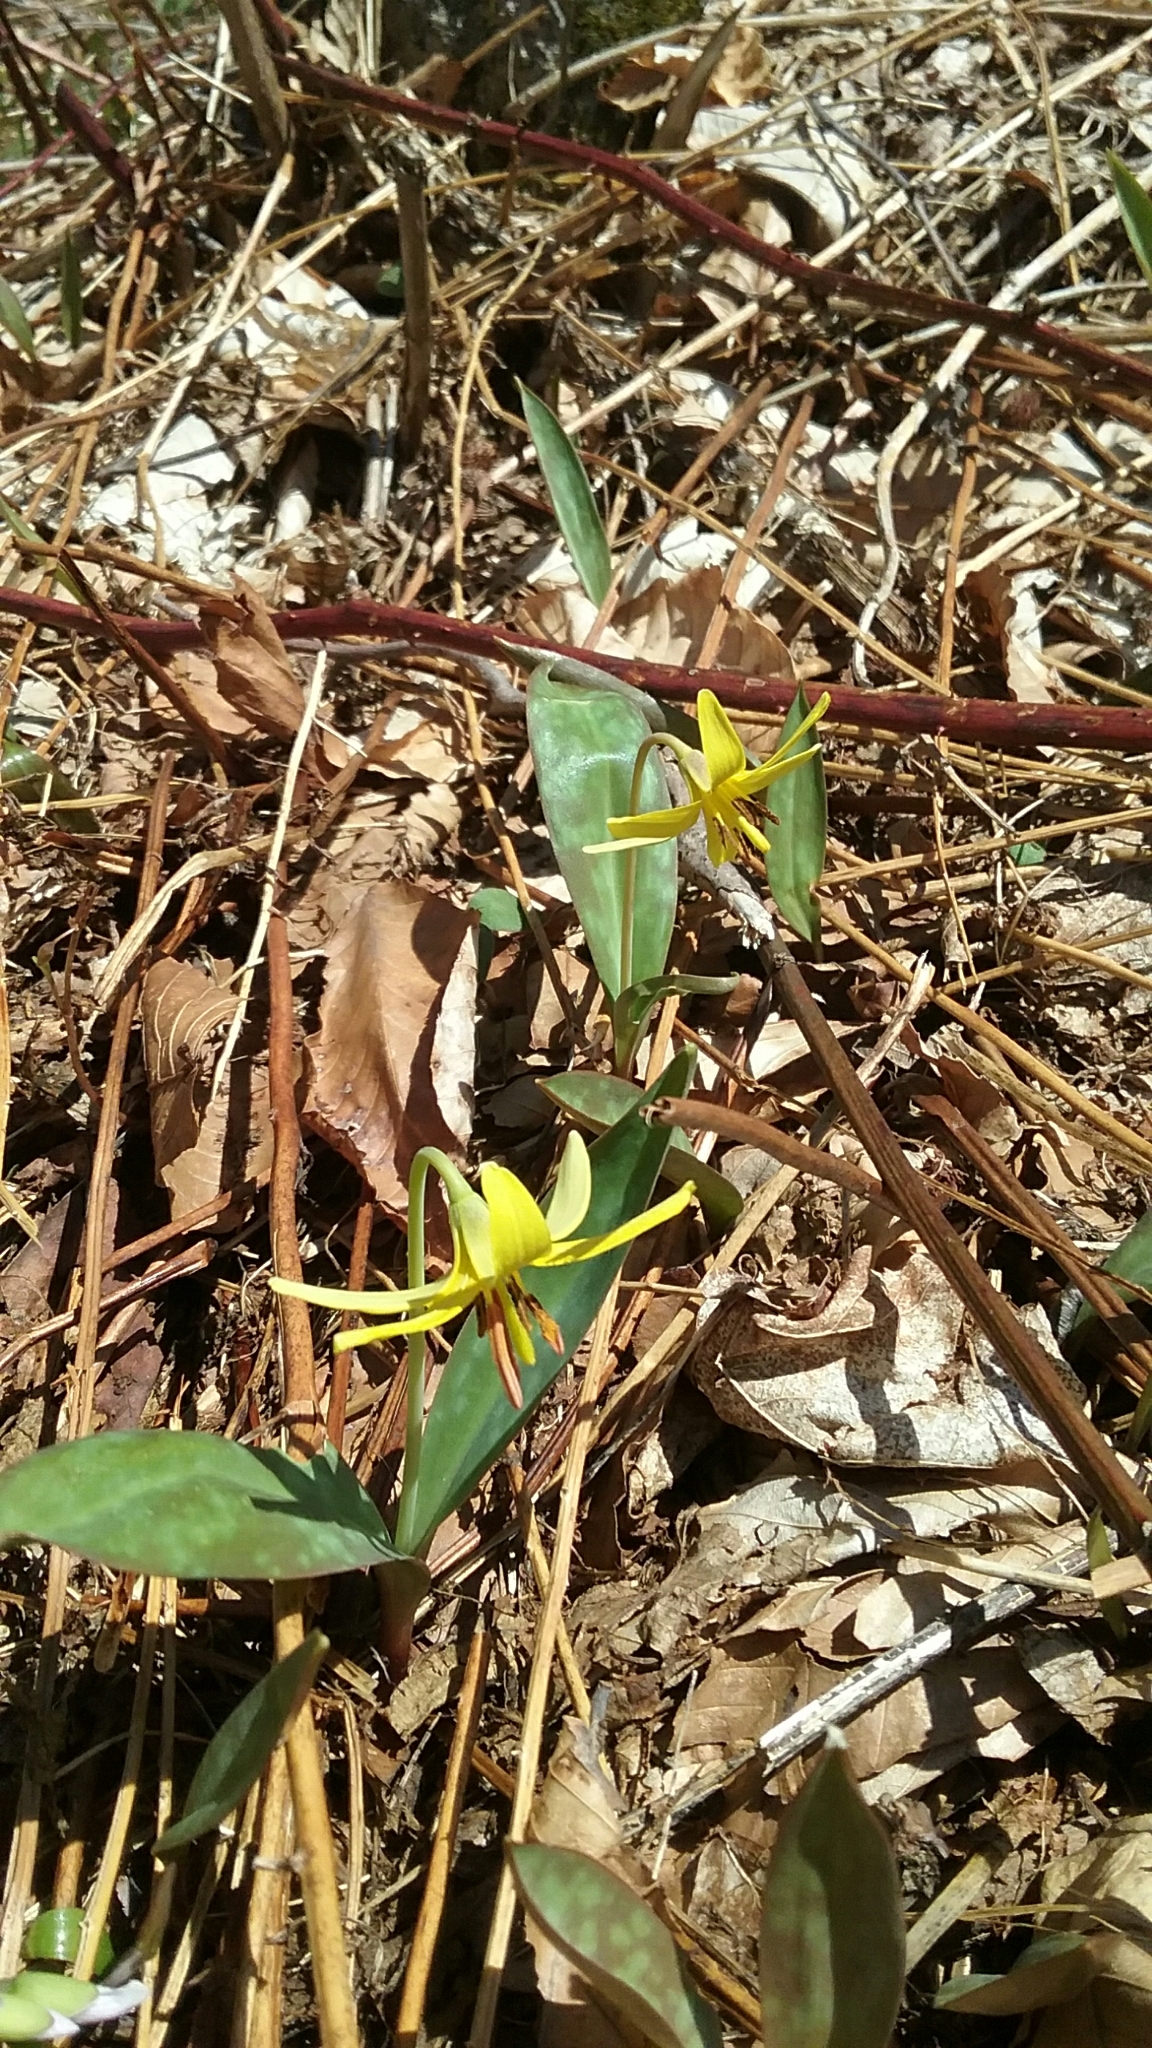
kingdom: Plantae
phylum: Tracheophyta
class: Liliopsida
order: Liliales
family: Liliaceae
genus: Erythronium
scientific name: Erythronium americanum
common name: Yellow adder's-tongue
